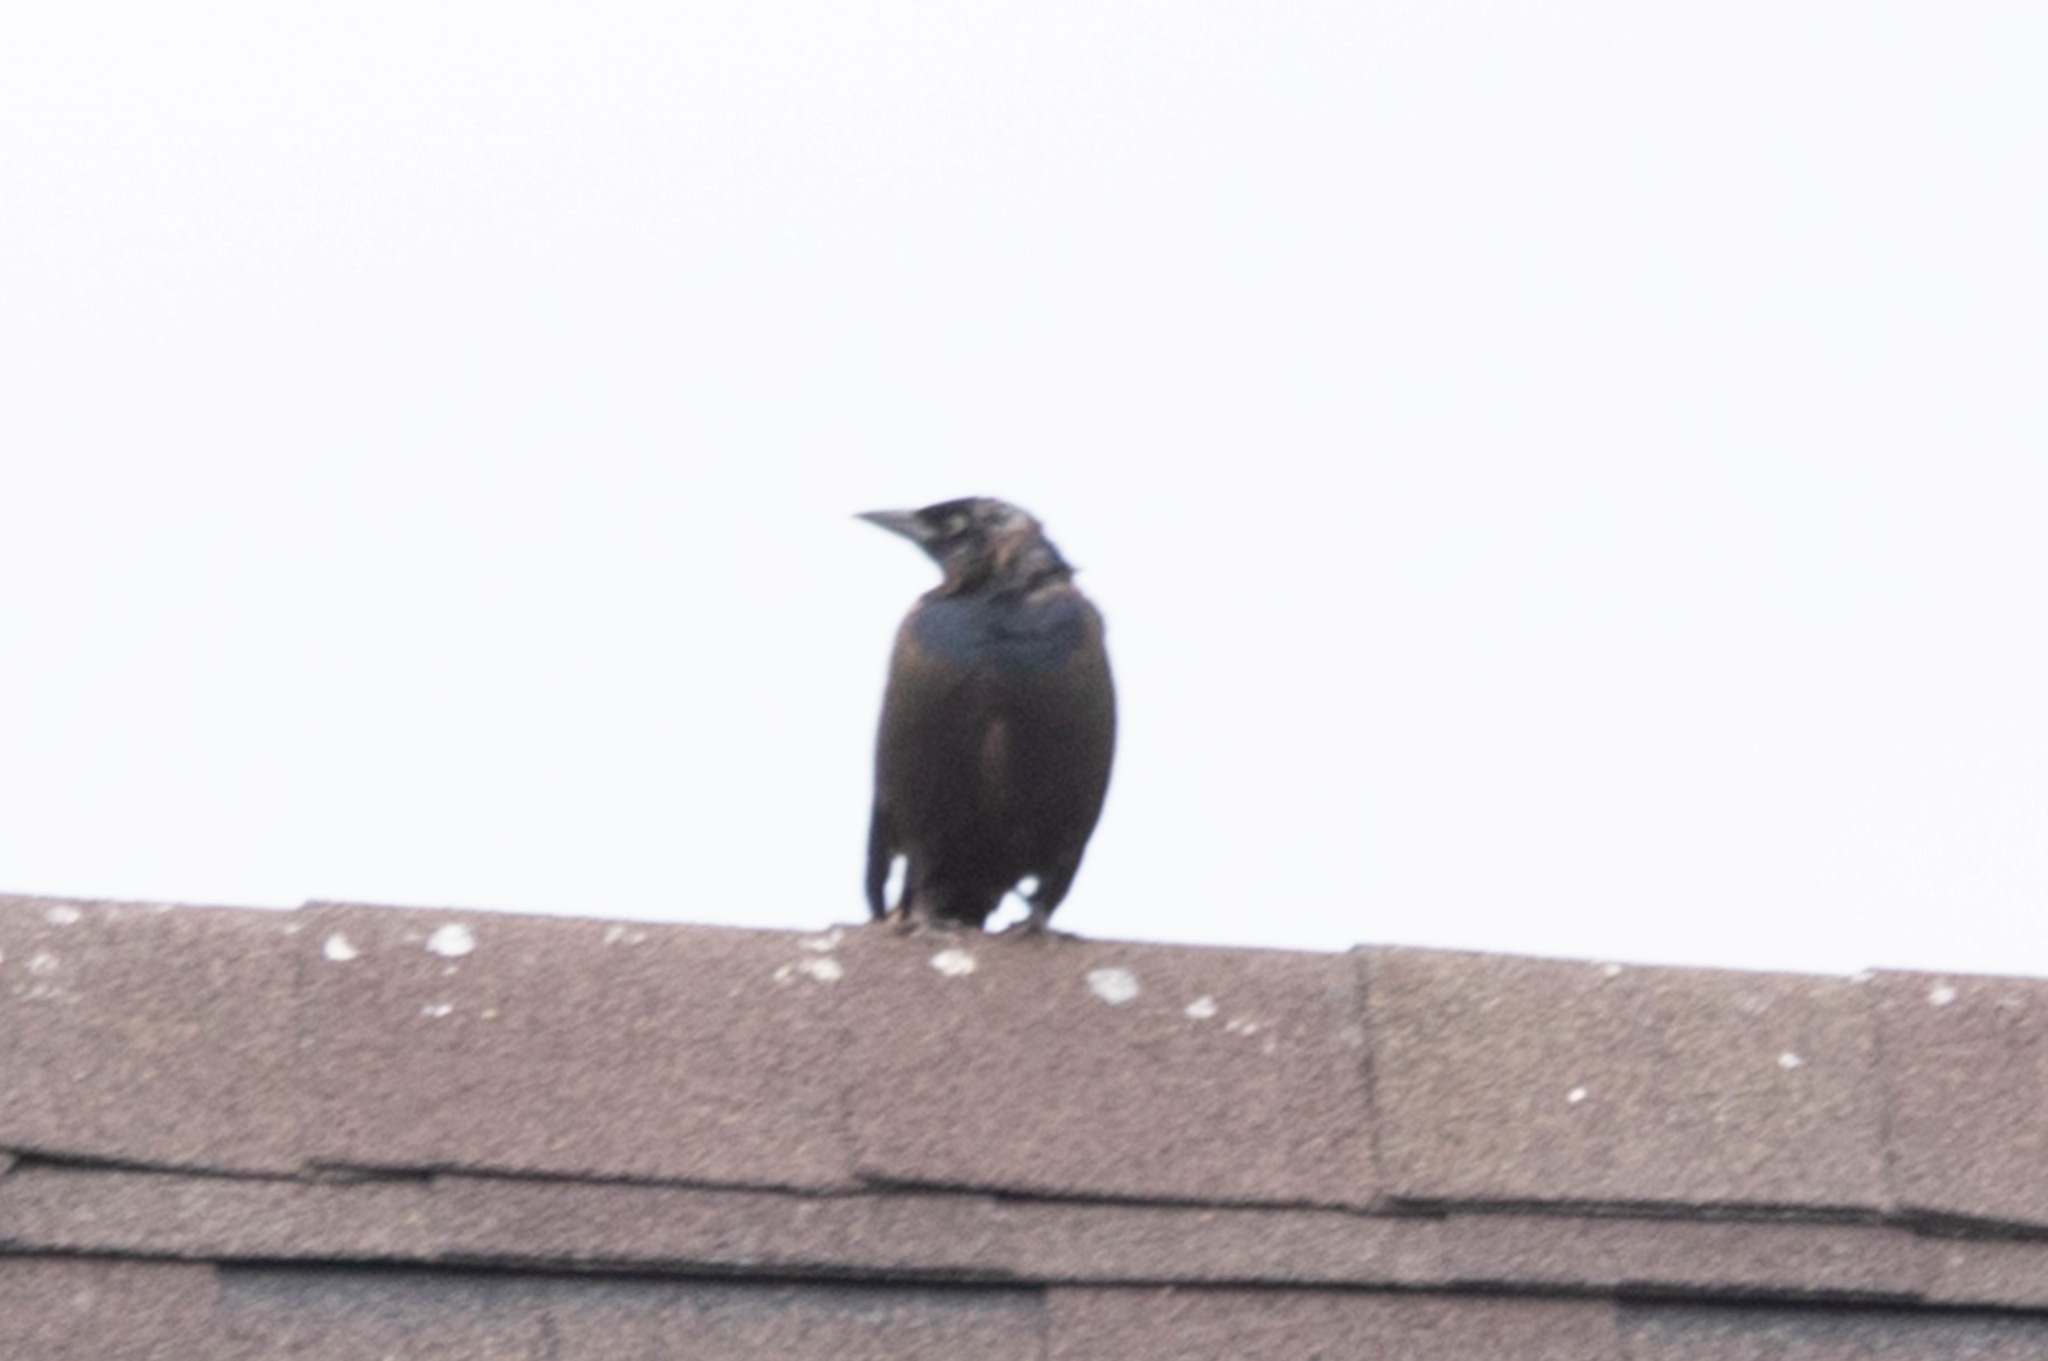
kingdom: Animalia
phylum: Chordata
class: Aves
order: Passeriformes
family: Icteridae
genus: Quiscalus
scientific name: Quiscalus quiscula
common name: Common grackle
